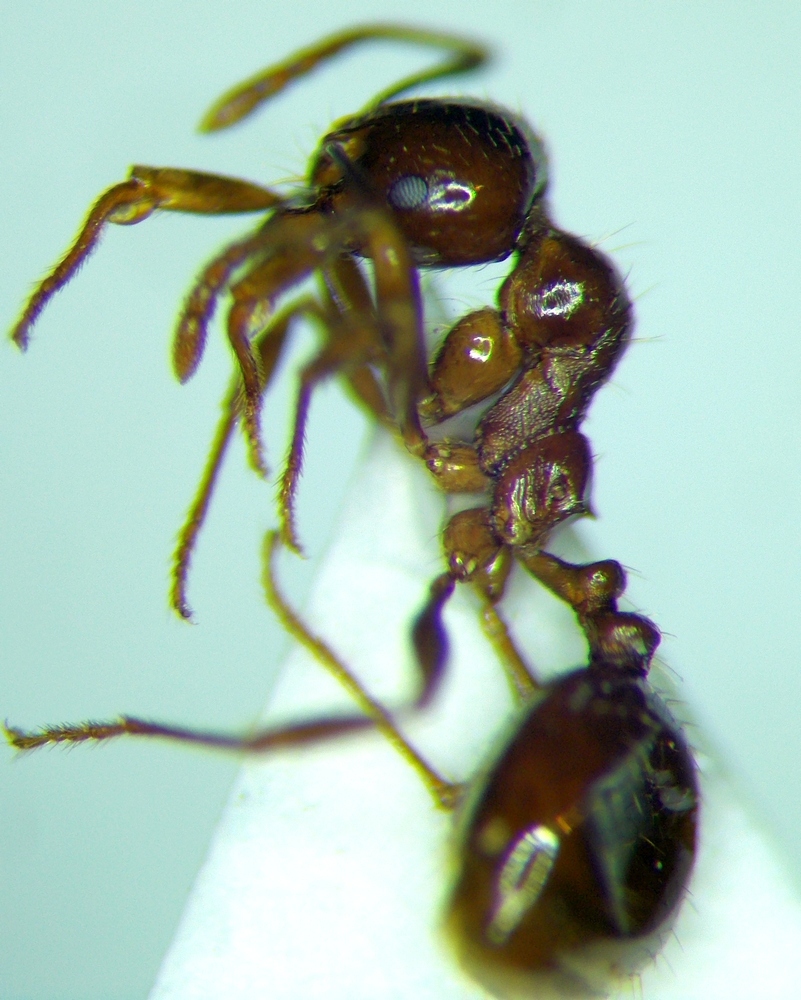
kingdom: Animalia
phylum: Arthropoda
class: Insecta
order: Hymenoptera
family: Formicidae
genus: Aphaenogaster
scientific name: Aphaenogaster subterraneoides
